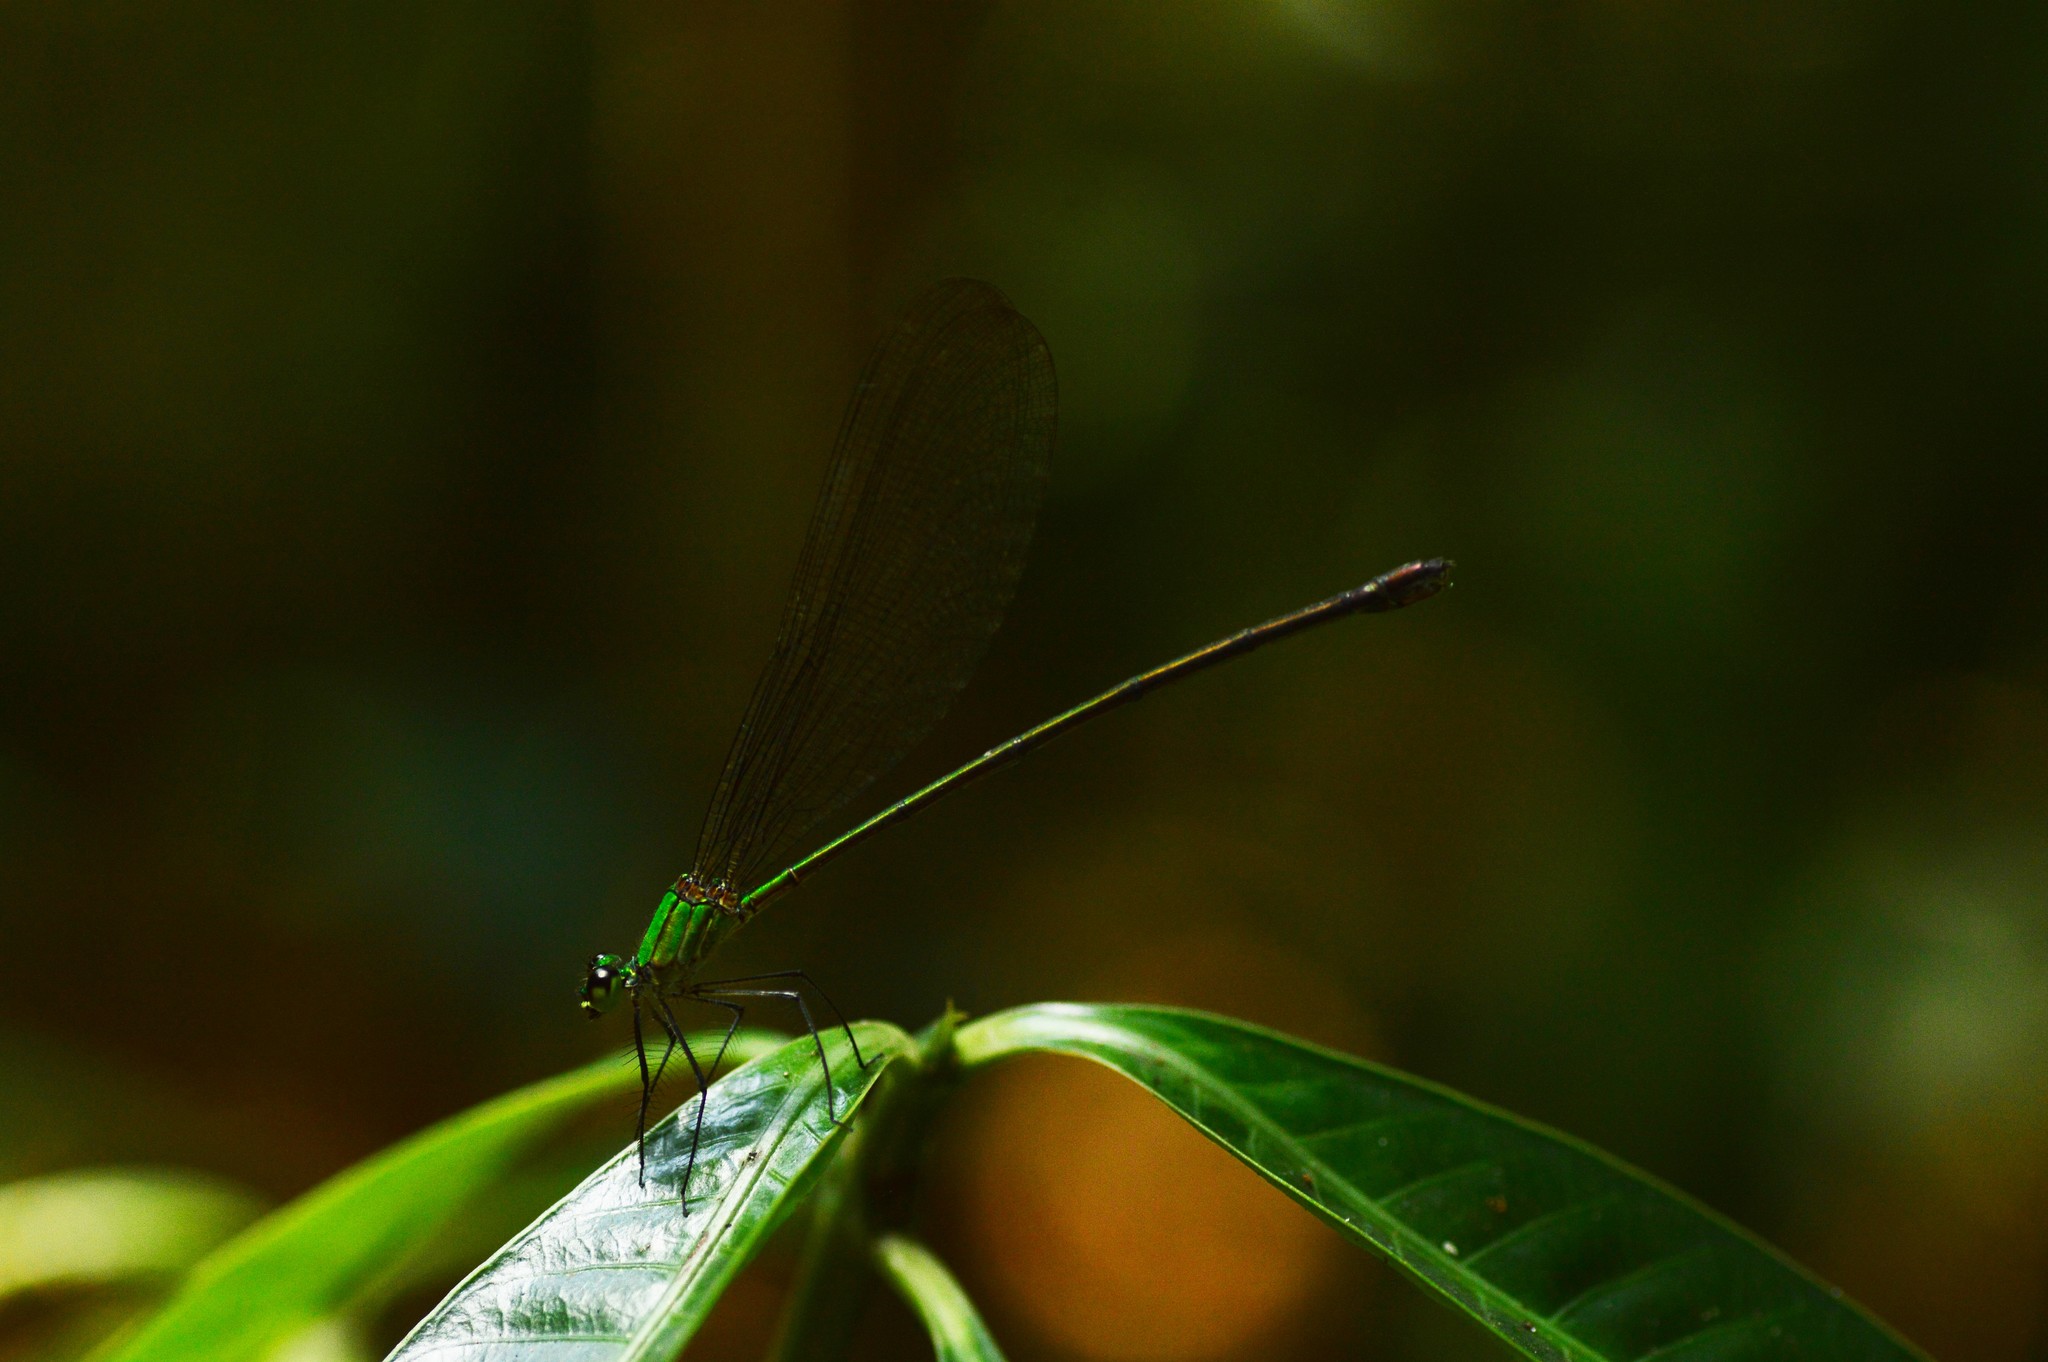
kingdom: Animalia
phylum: Arthropoda
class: Insecta
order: Odonata
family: Calopterygidae
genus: Vestalis
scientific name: Vestalis gracilis
